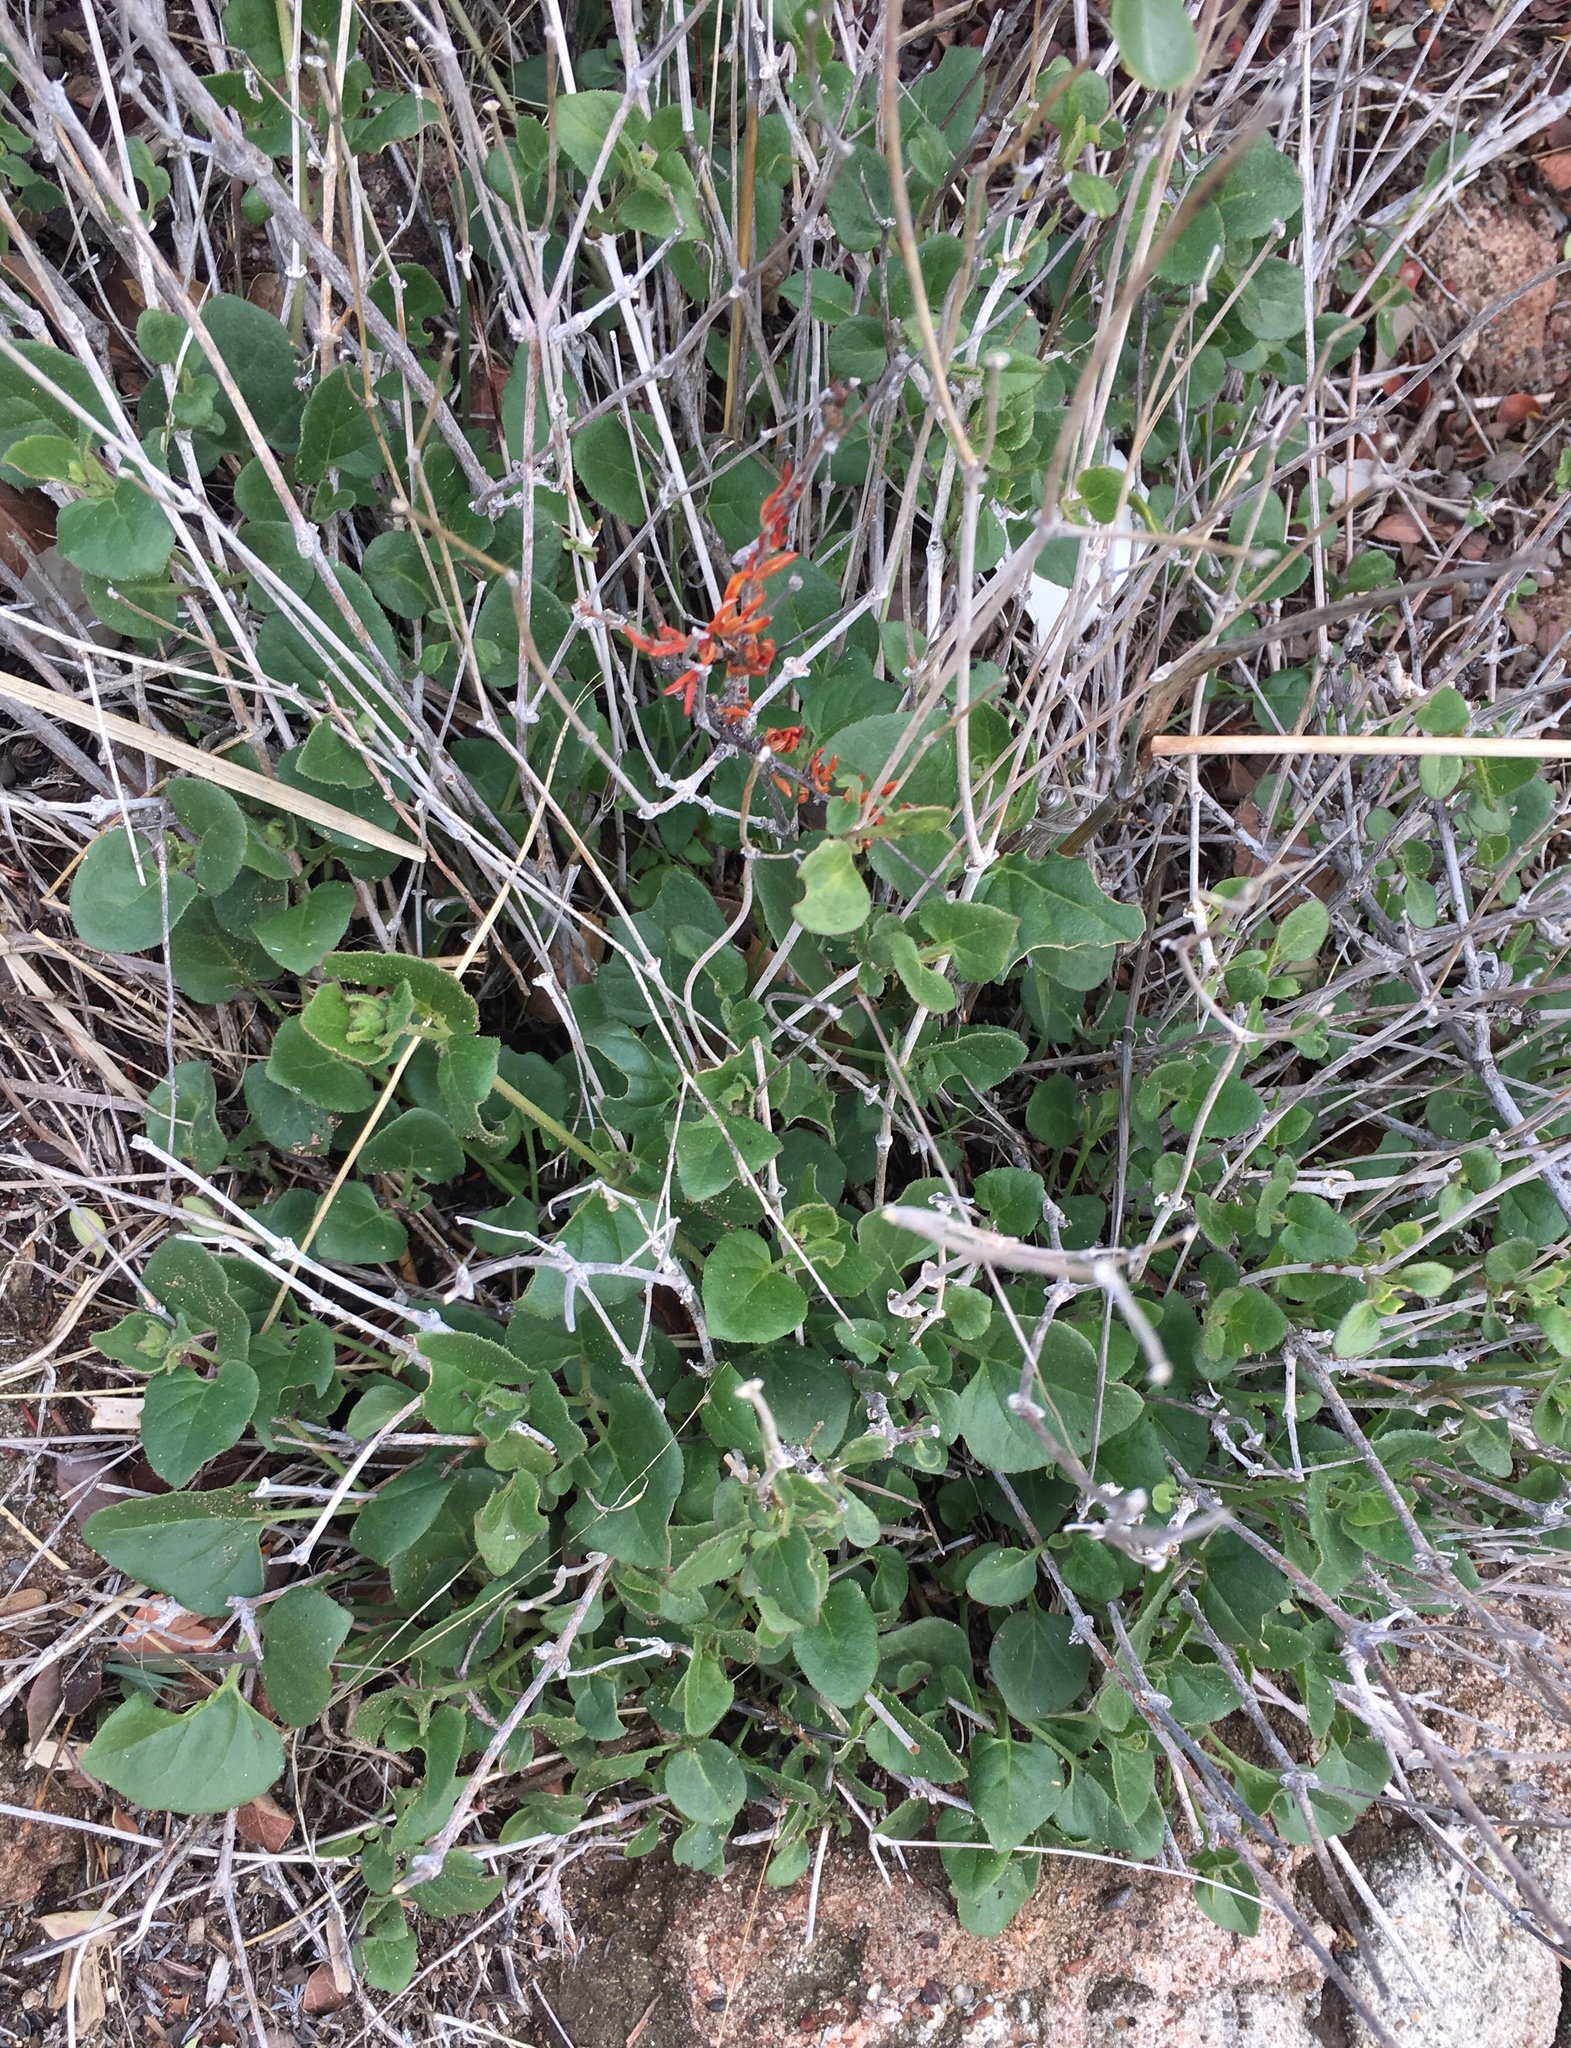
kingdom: Plantae
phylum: Tracheophyta
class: Magnoliopsida
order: Caryophyllales
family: Nyctaginaceae
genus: Mirabilis
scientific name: Mirabilis laevis
